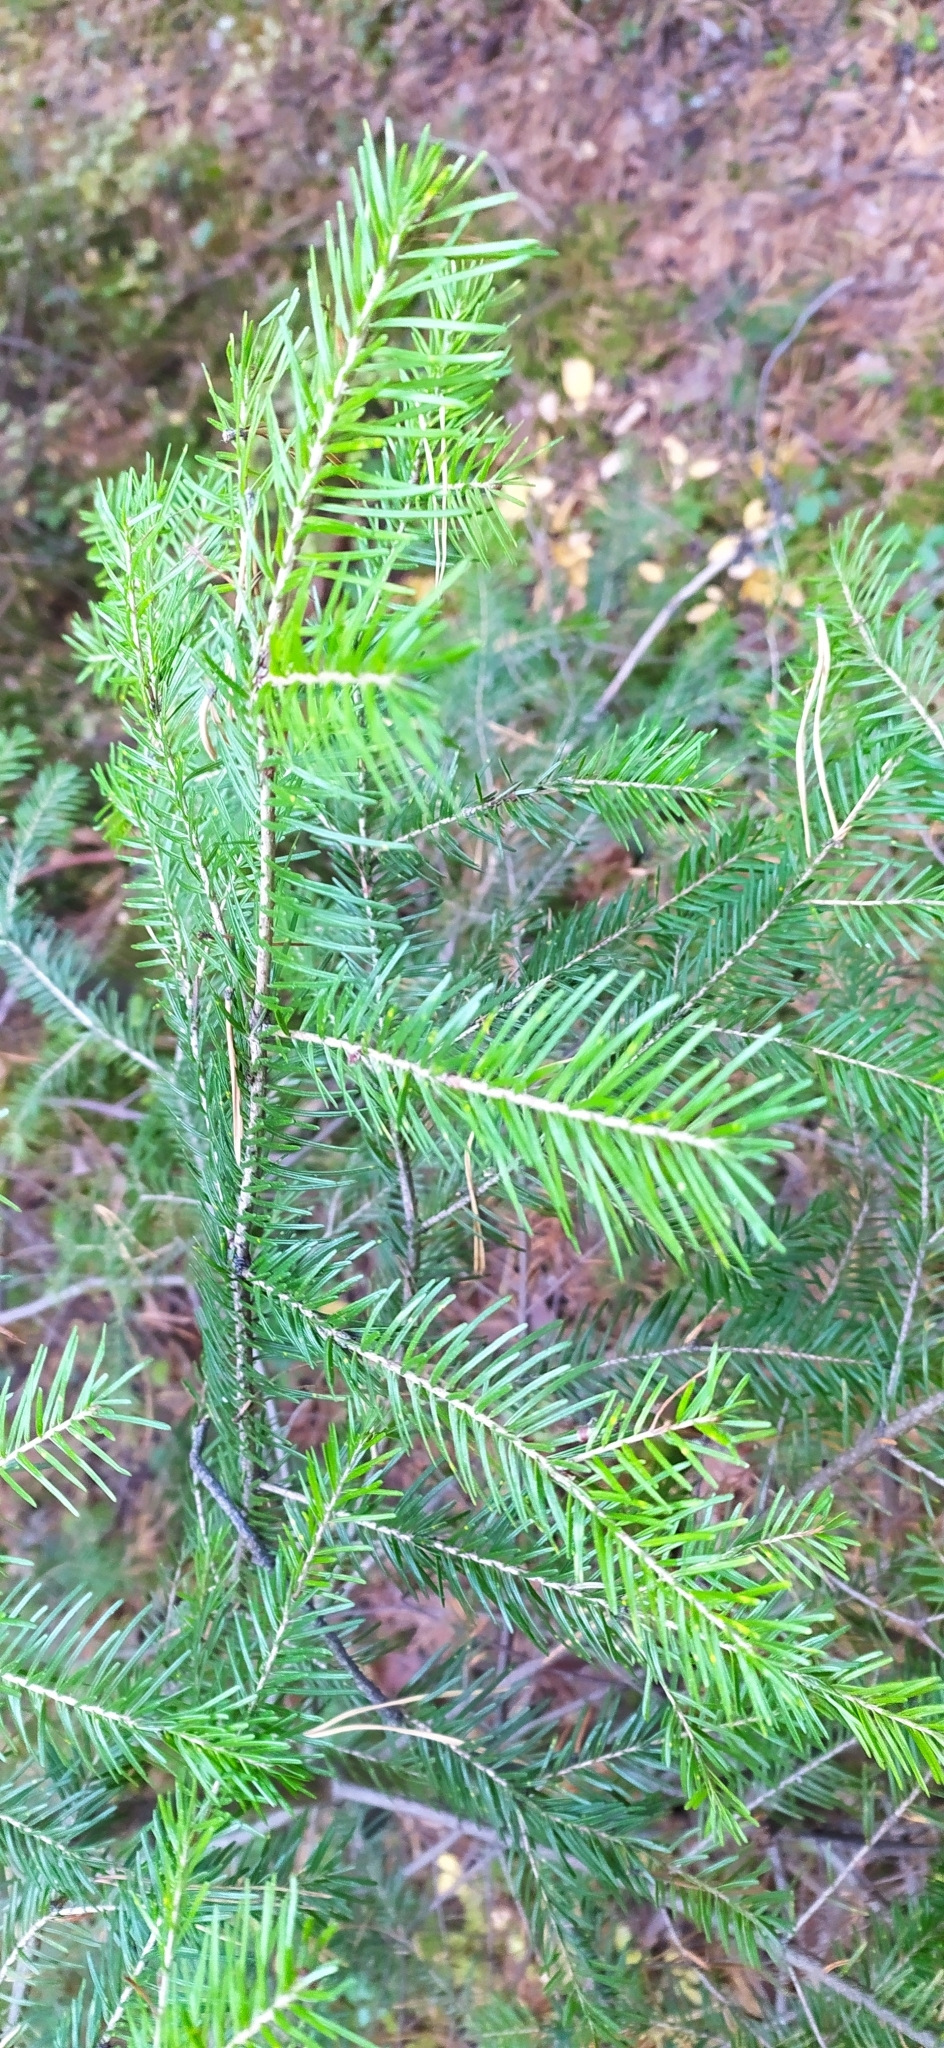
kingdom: Plantae
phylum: Tracheophyta
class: Pinopsida
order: Pinales
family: Pinaceae
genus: Abies
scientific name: Abies sibirica
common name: Siberian fir
